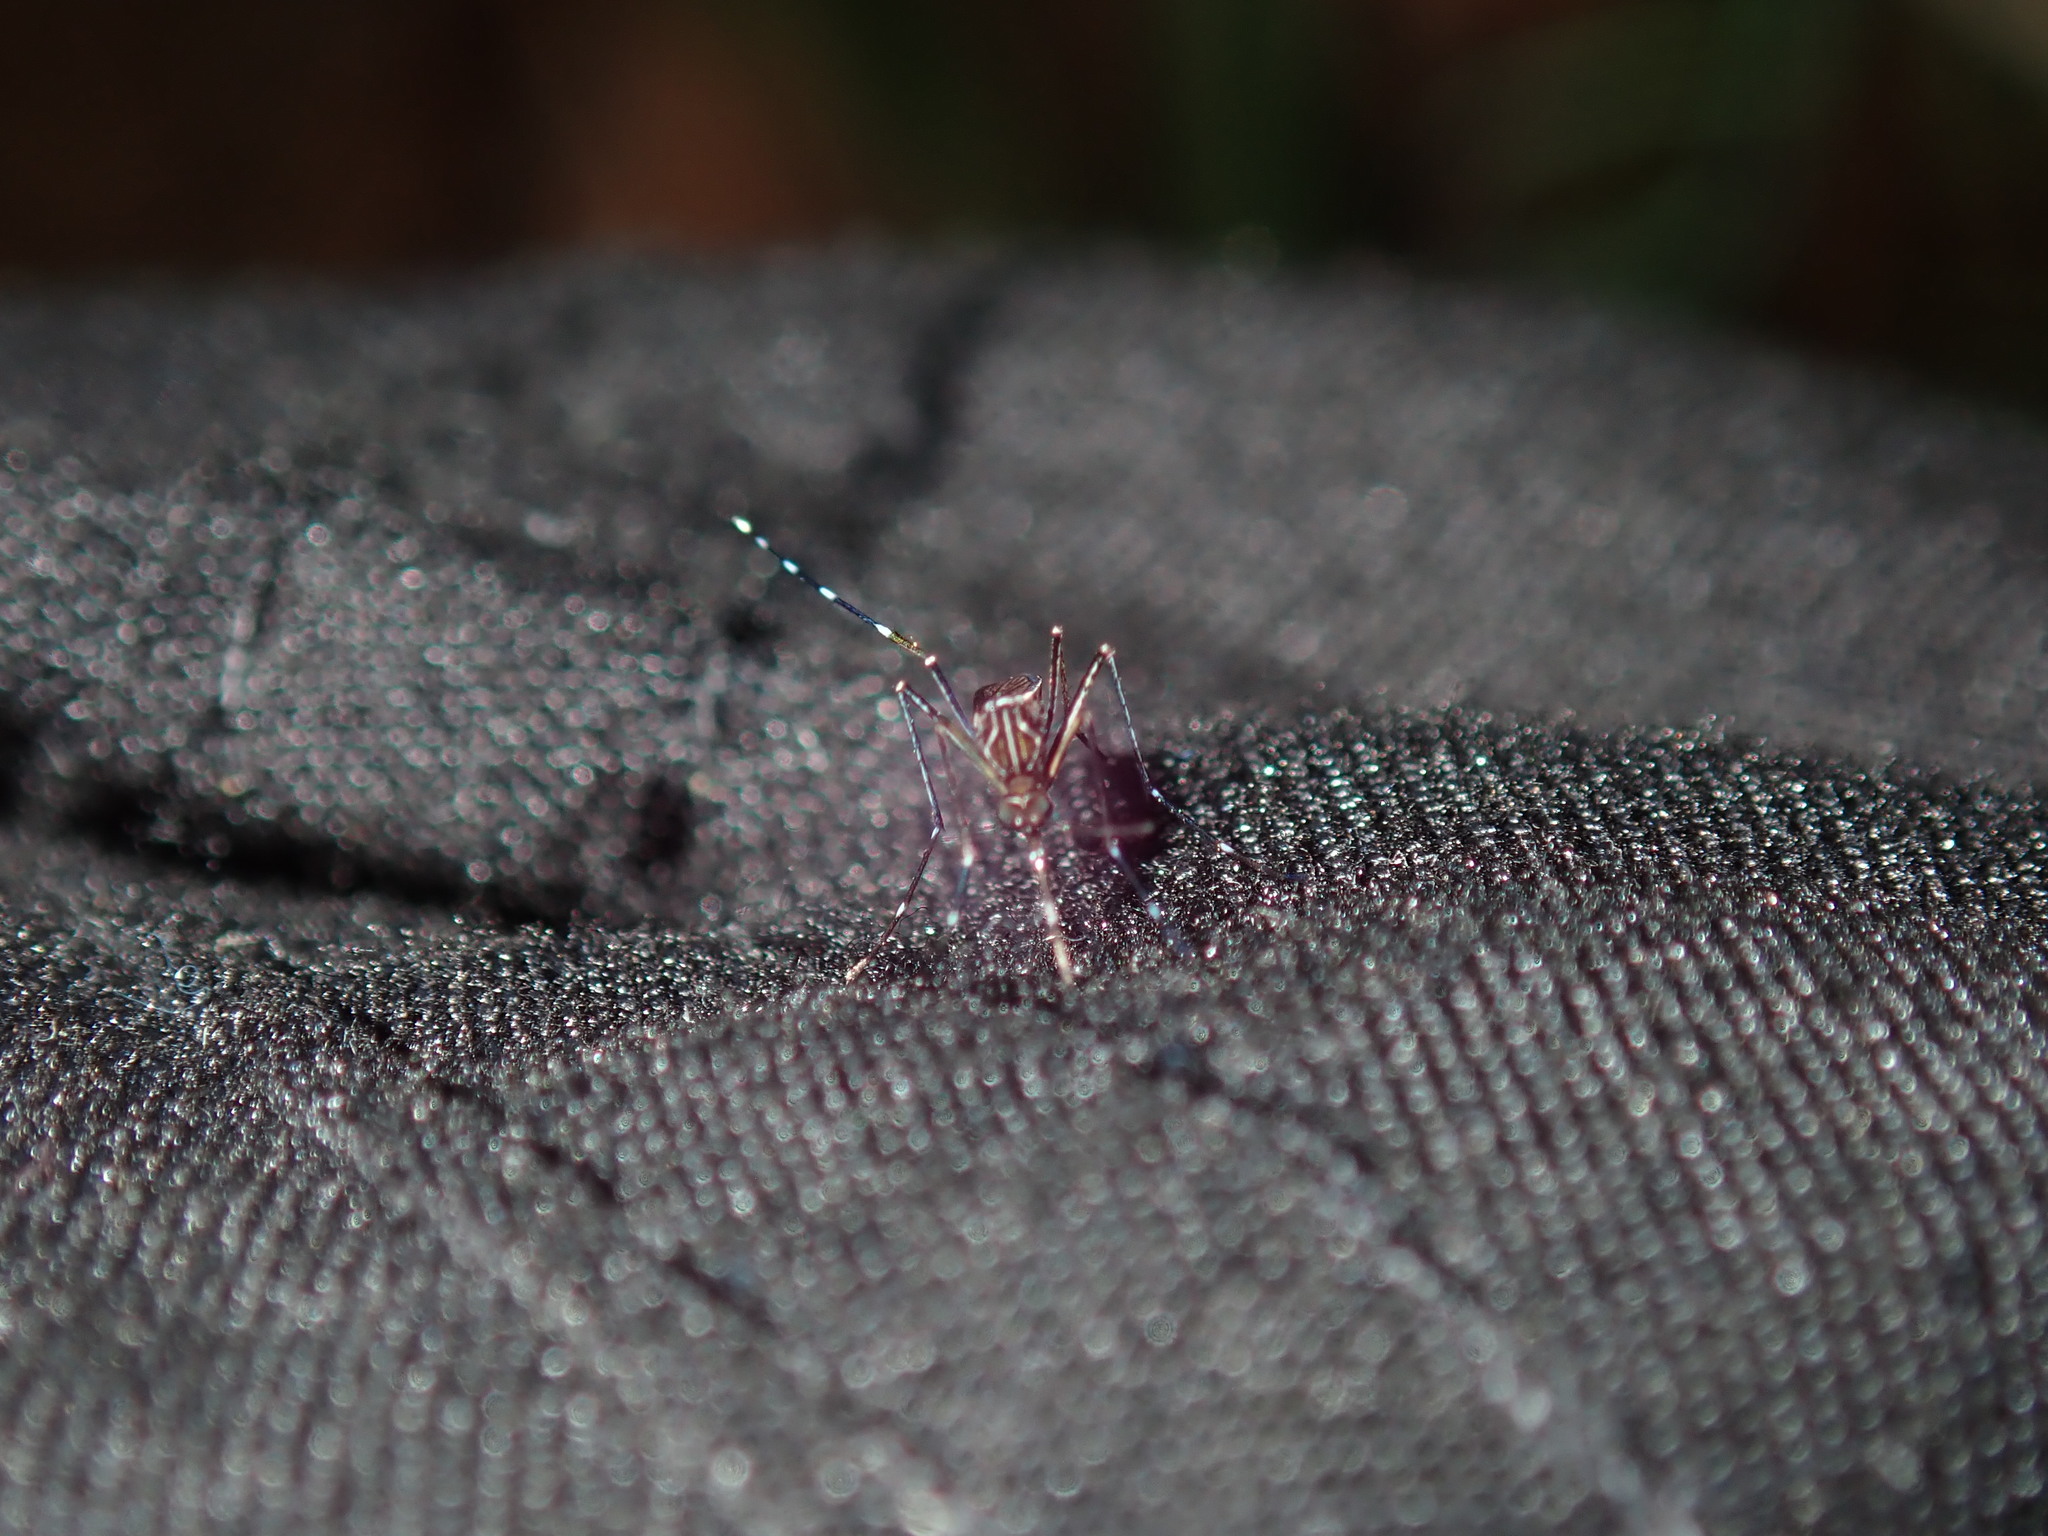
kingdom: Animalia
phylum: Arthropoda
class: Insecta
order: Diptera
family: Culicidae
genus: Aedes
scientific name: Aedes notoscriptus
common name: Australian backyard mosquito
